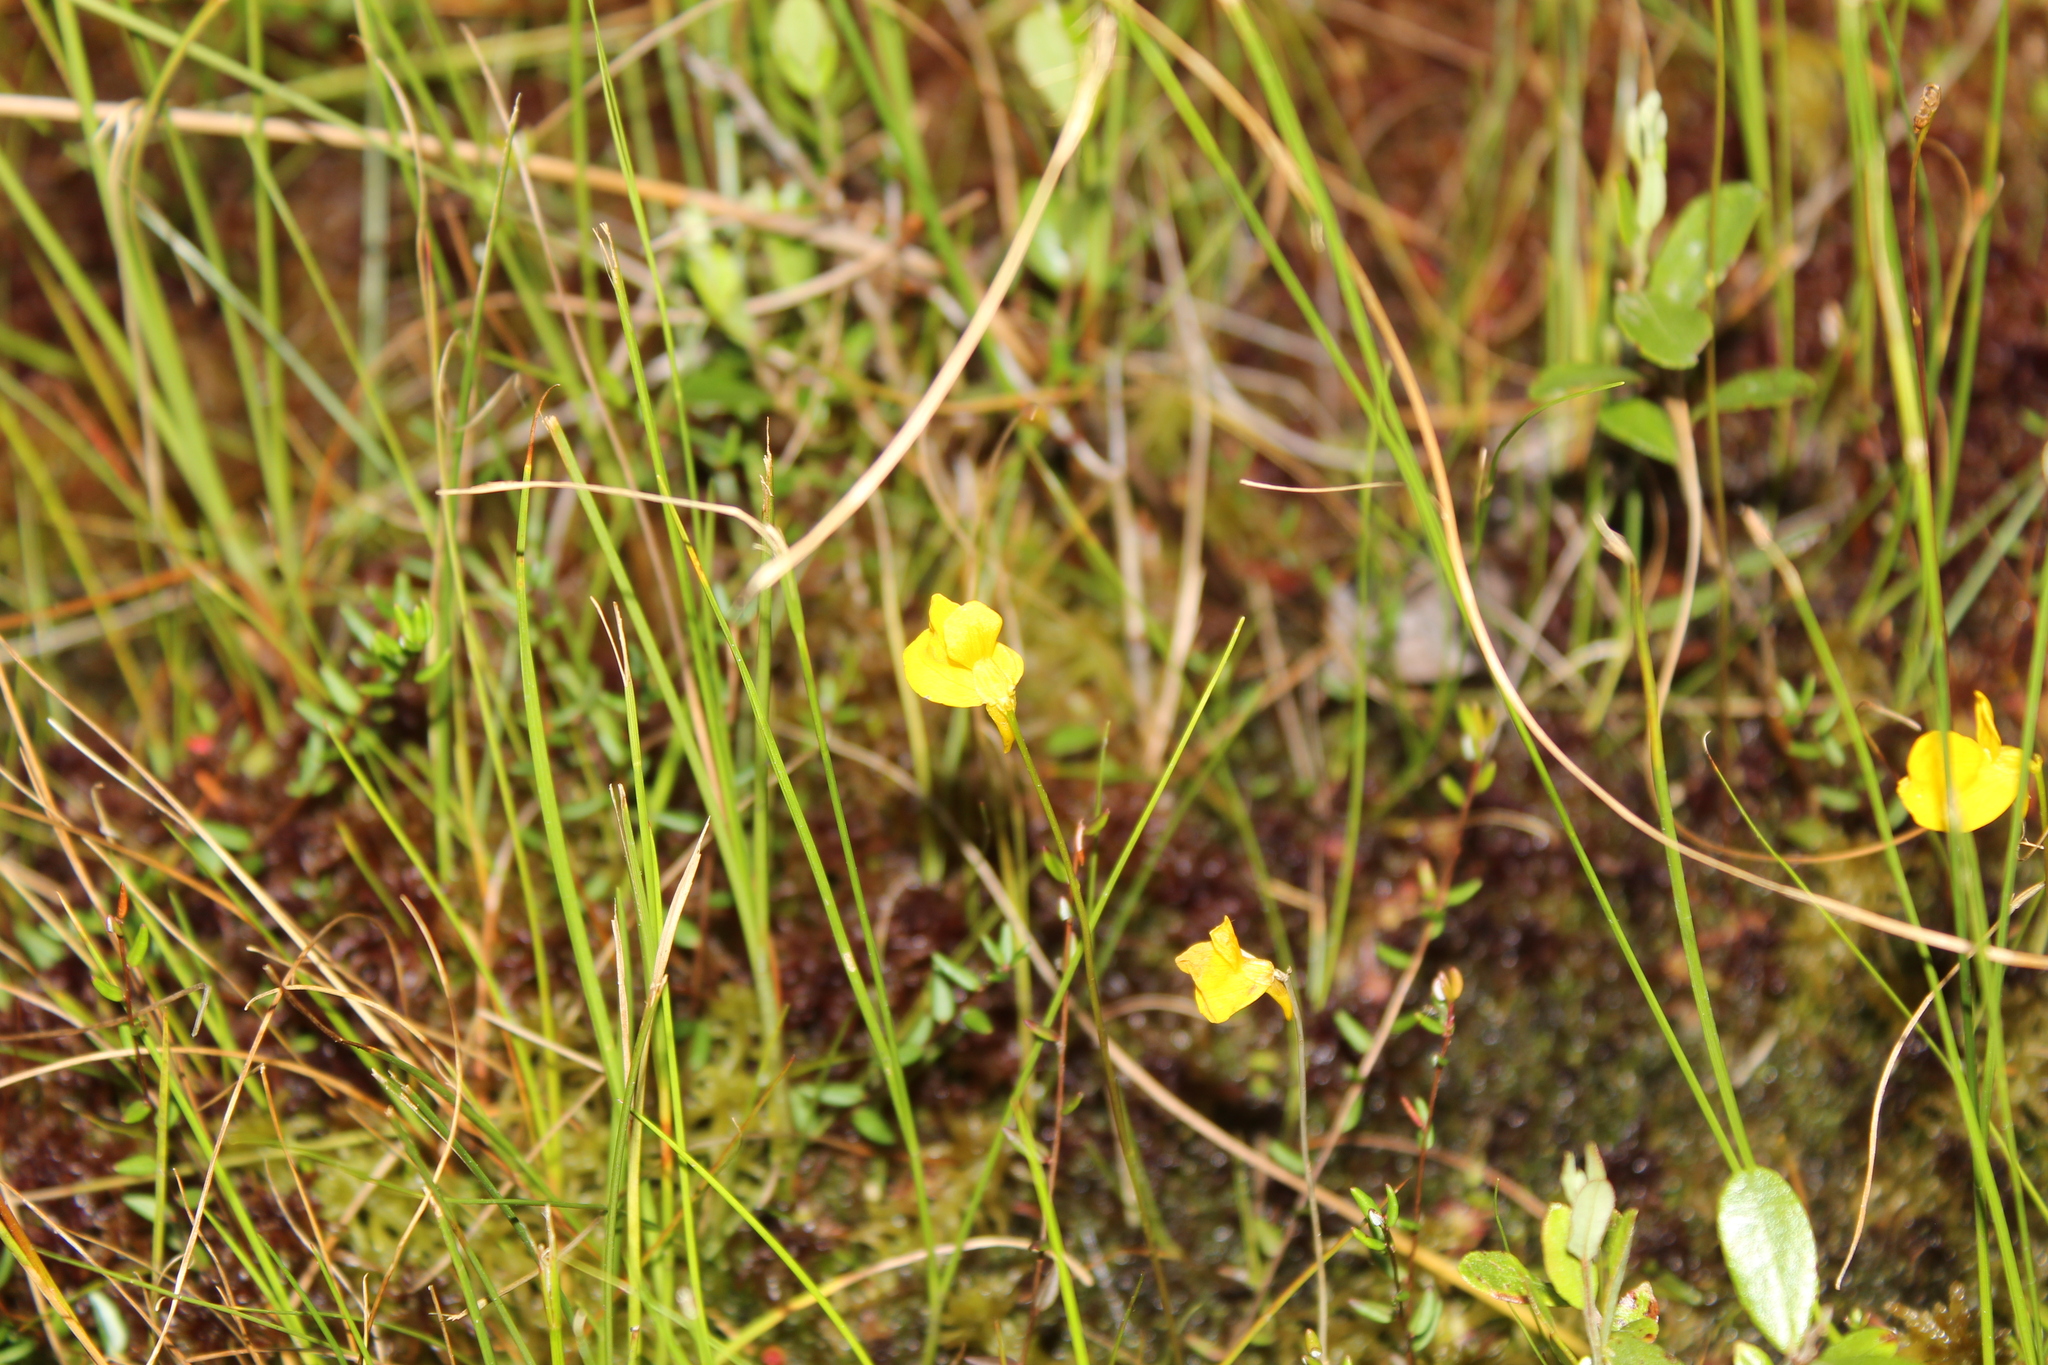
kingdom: Plantae
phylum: Tracheophyta
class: Magnoliopsida
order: Lamiales
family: Lentibulariaceae
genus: Utricularia
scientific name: Utricularia cornuta
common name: Horned bladderwort
